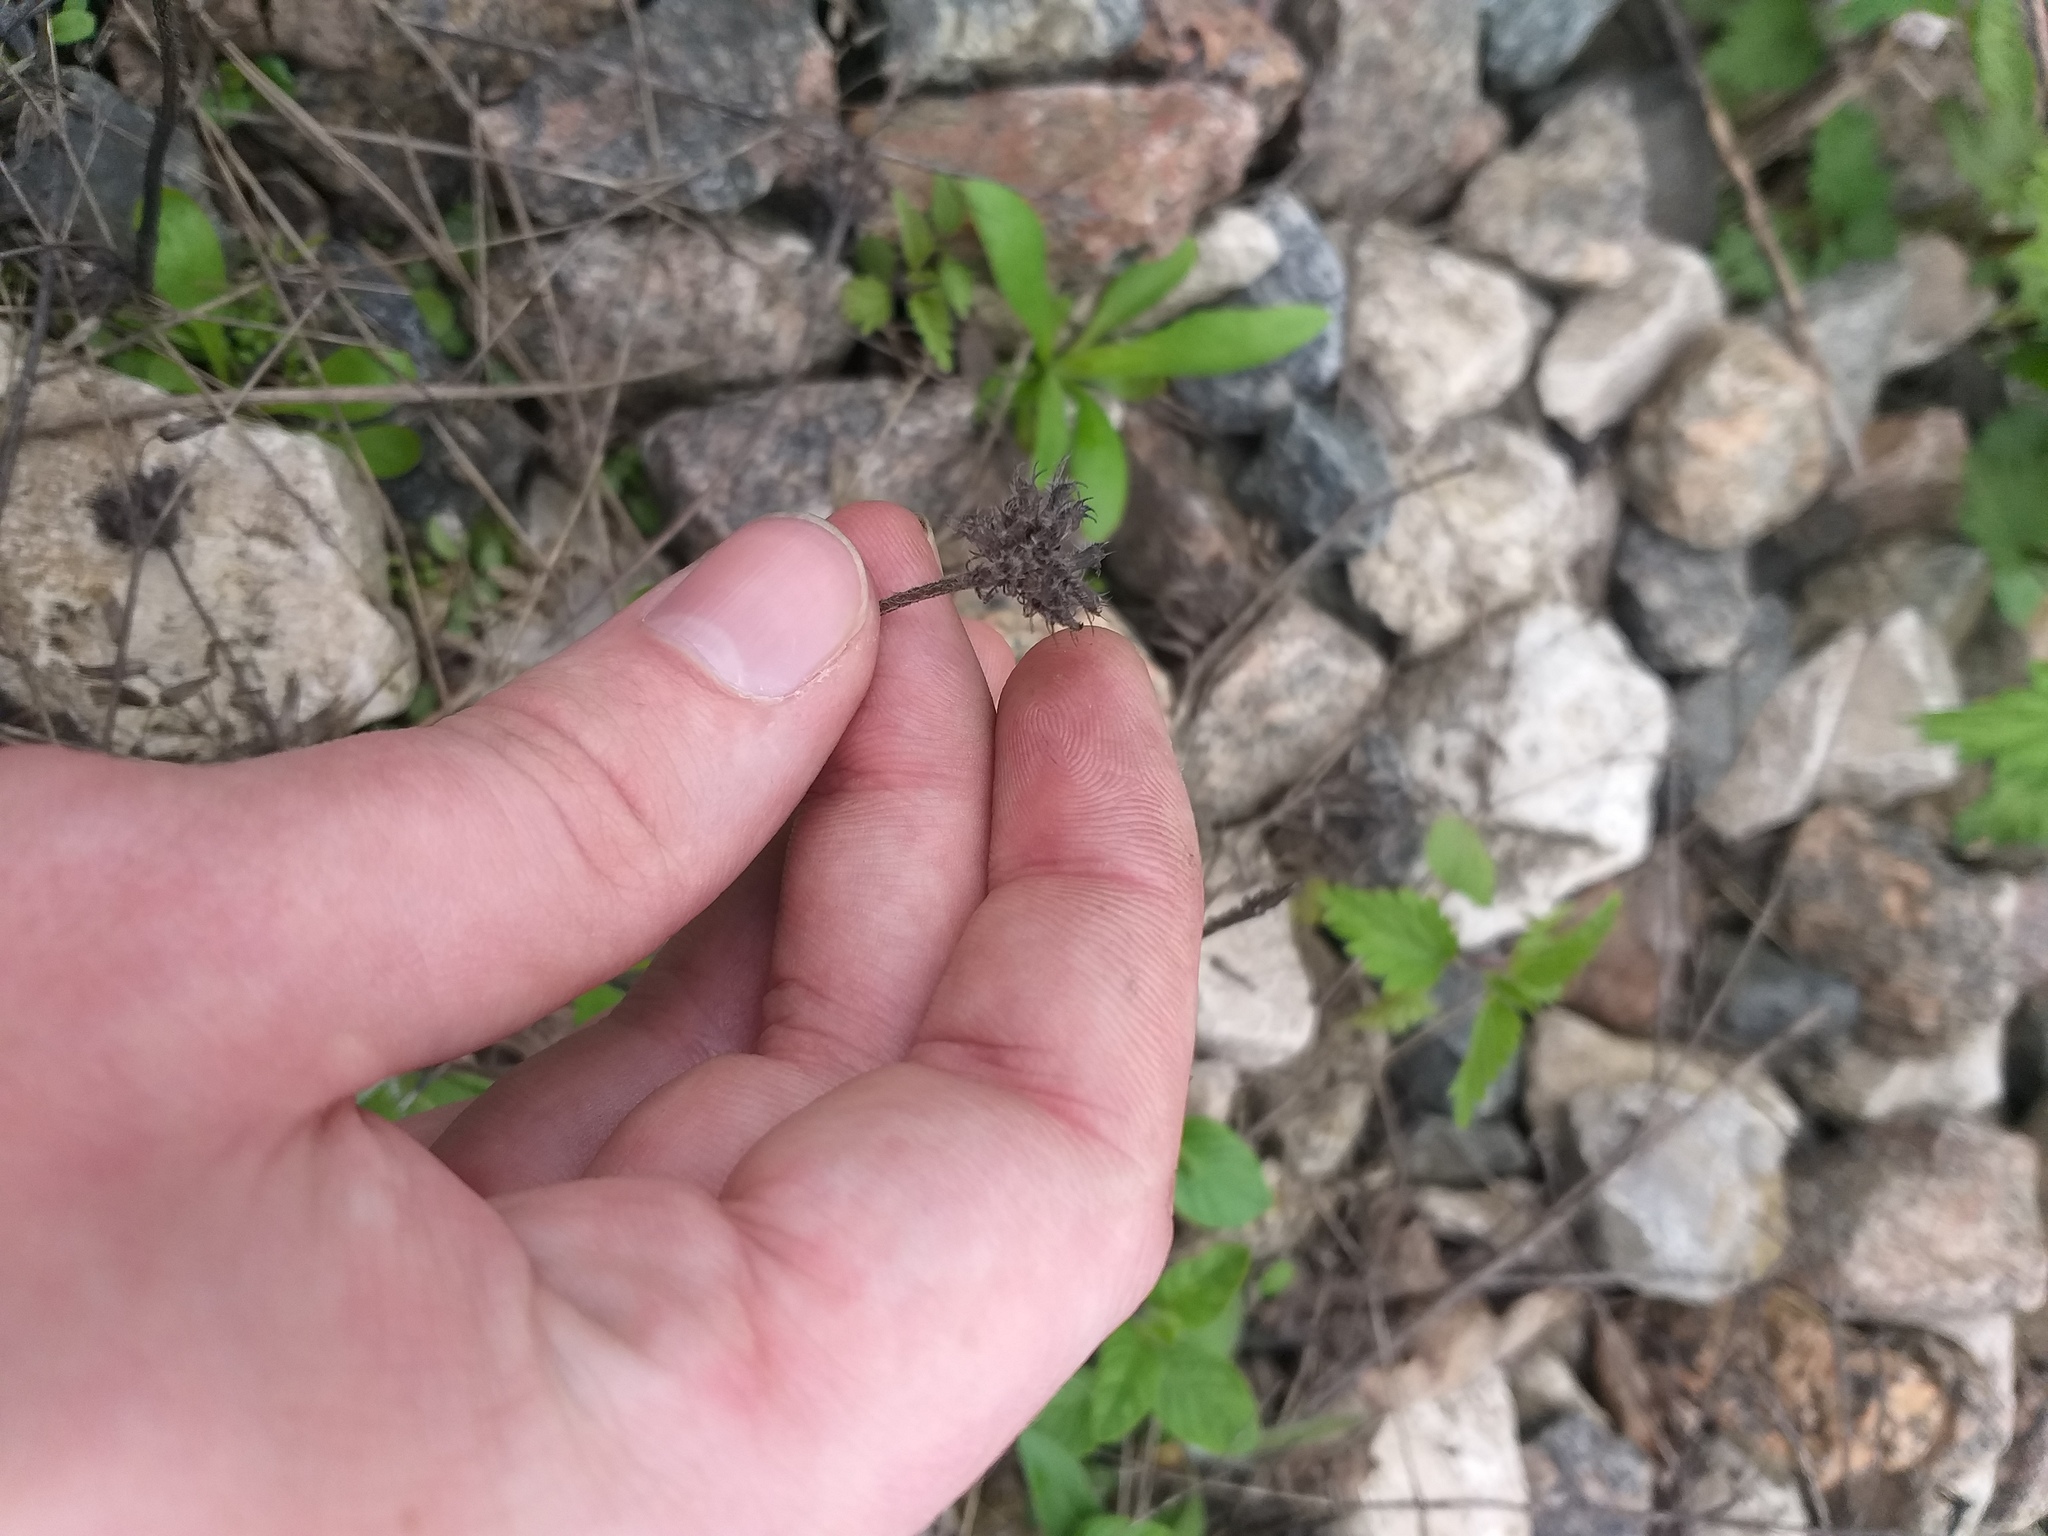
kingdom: Plantae
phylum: Tracheophyta
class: Magnoliopsida
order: Lamiales
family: Lamiaceae
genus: Clinopodium
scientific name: Clinopodium vulgare
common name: Wild basil
